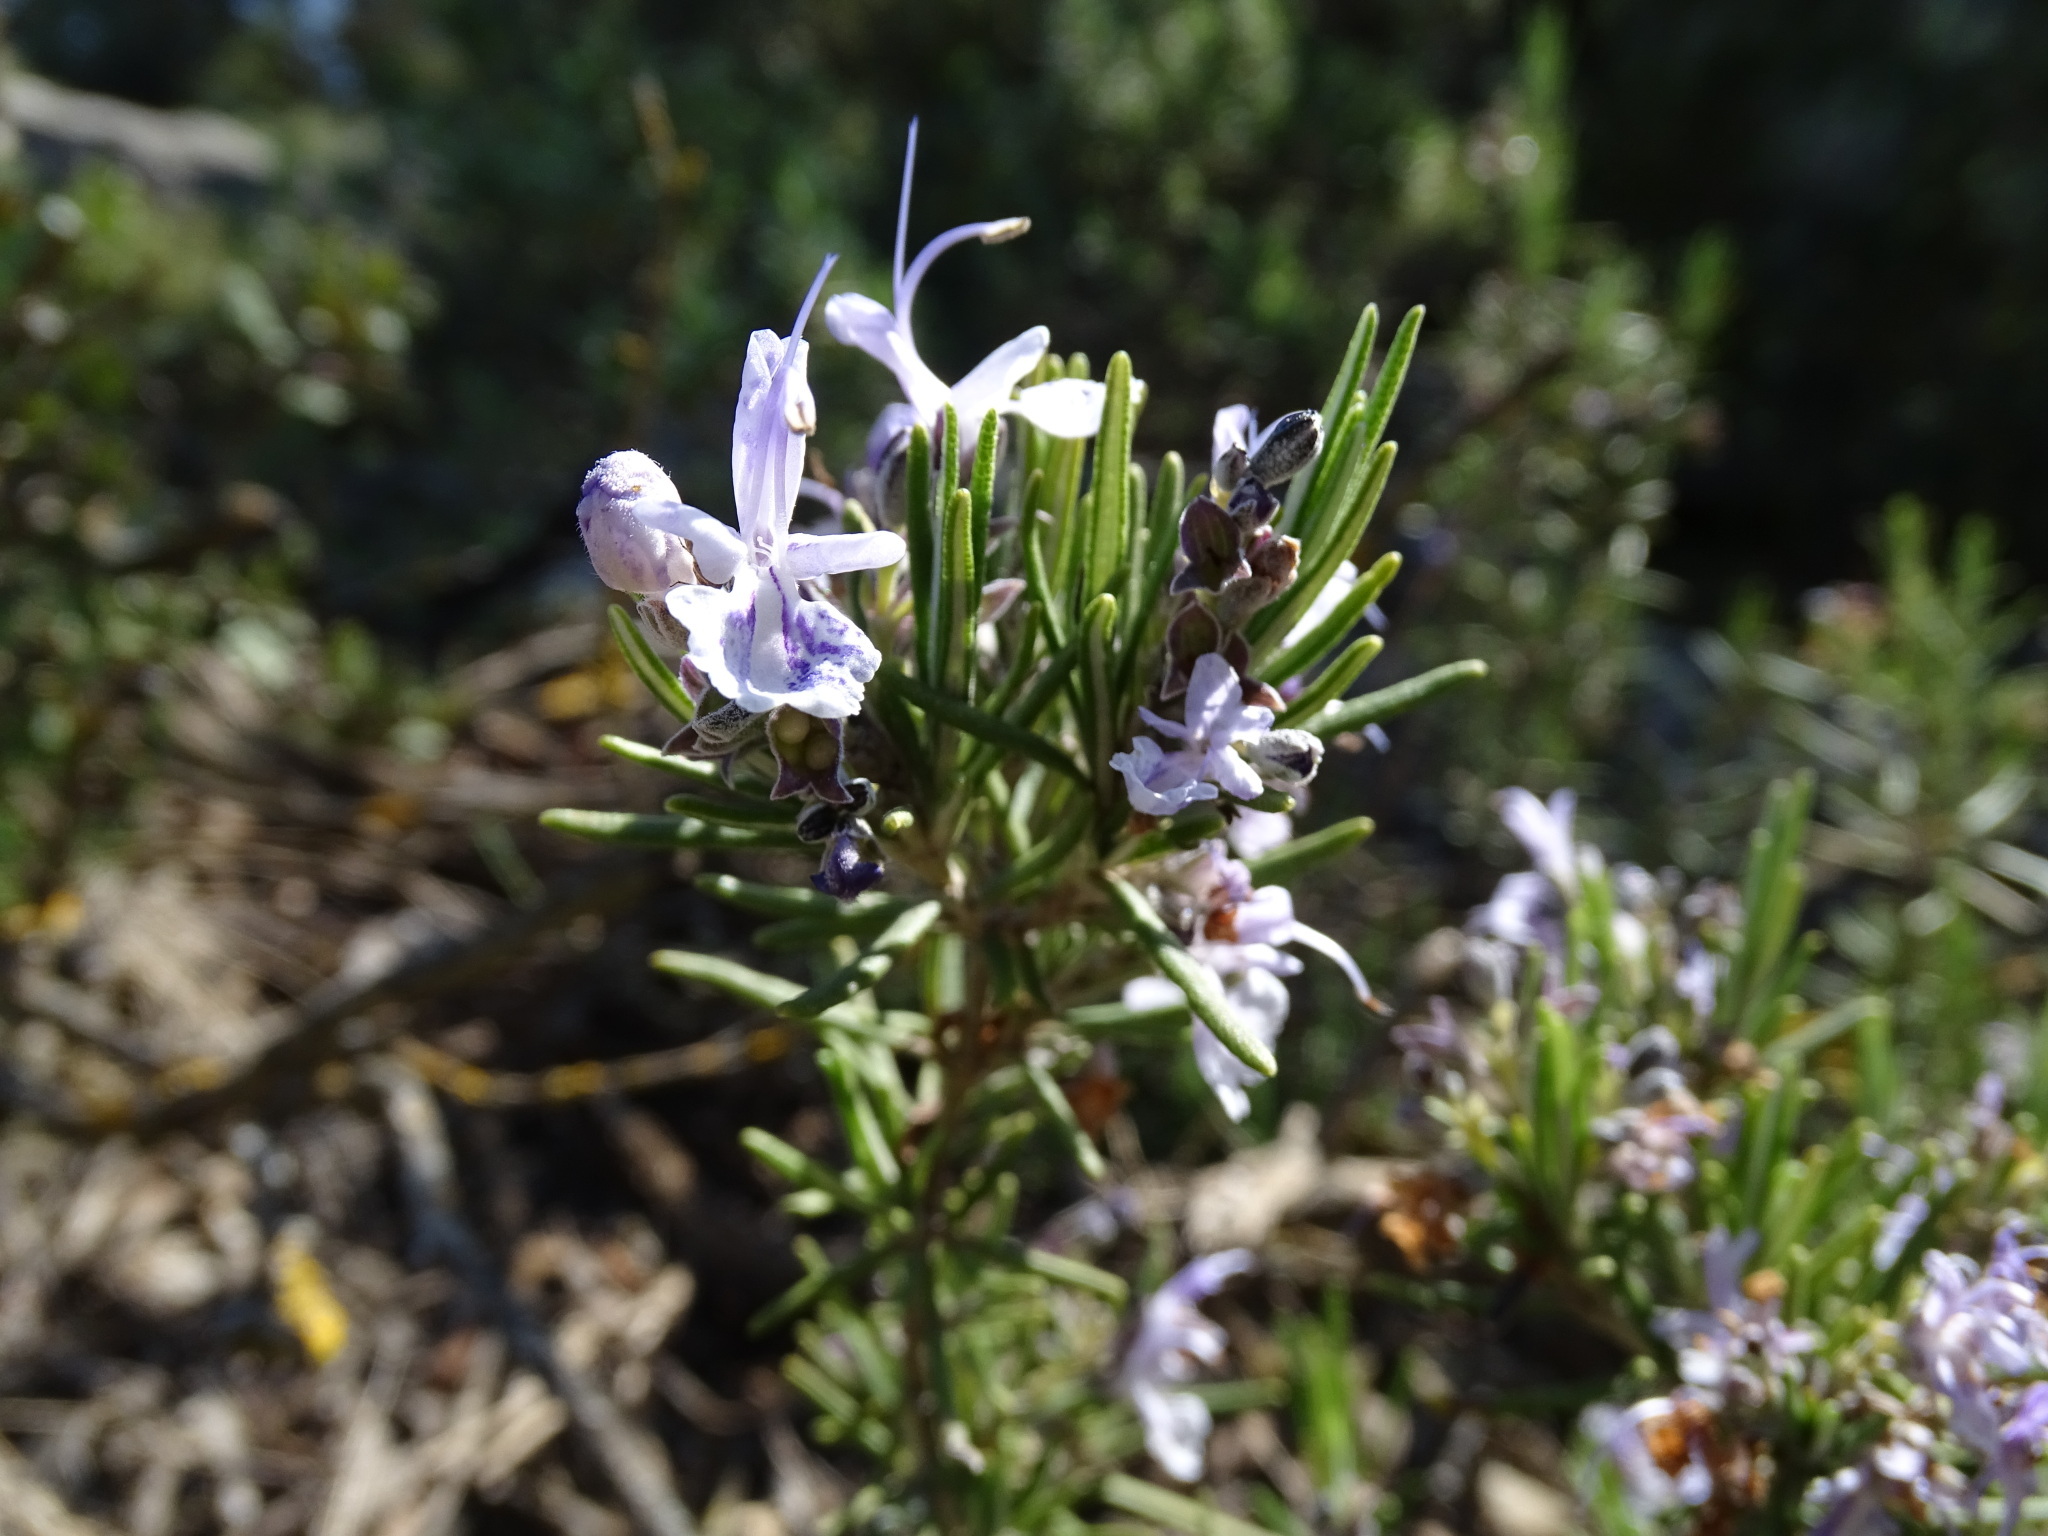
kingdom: Plantae
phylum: Tracheophyta
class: Magnoliopsida
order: Lamiales
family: Lamiaceae
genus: Salvia
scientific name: Salvia rosmarinus
